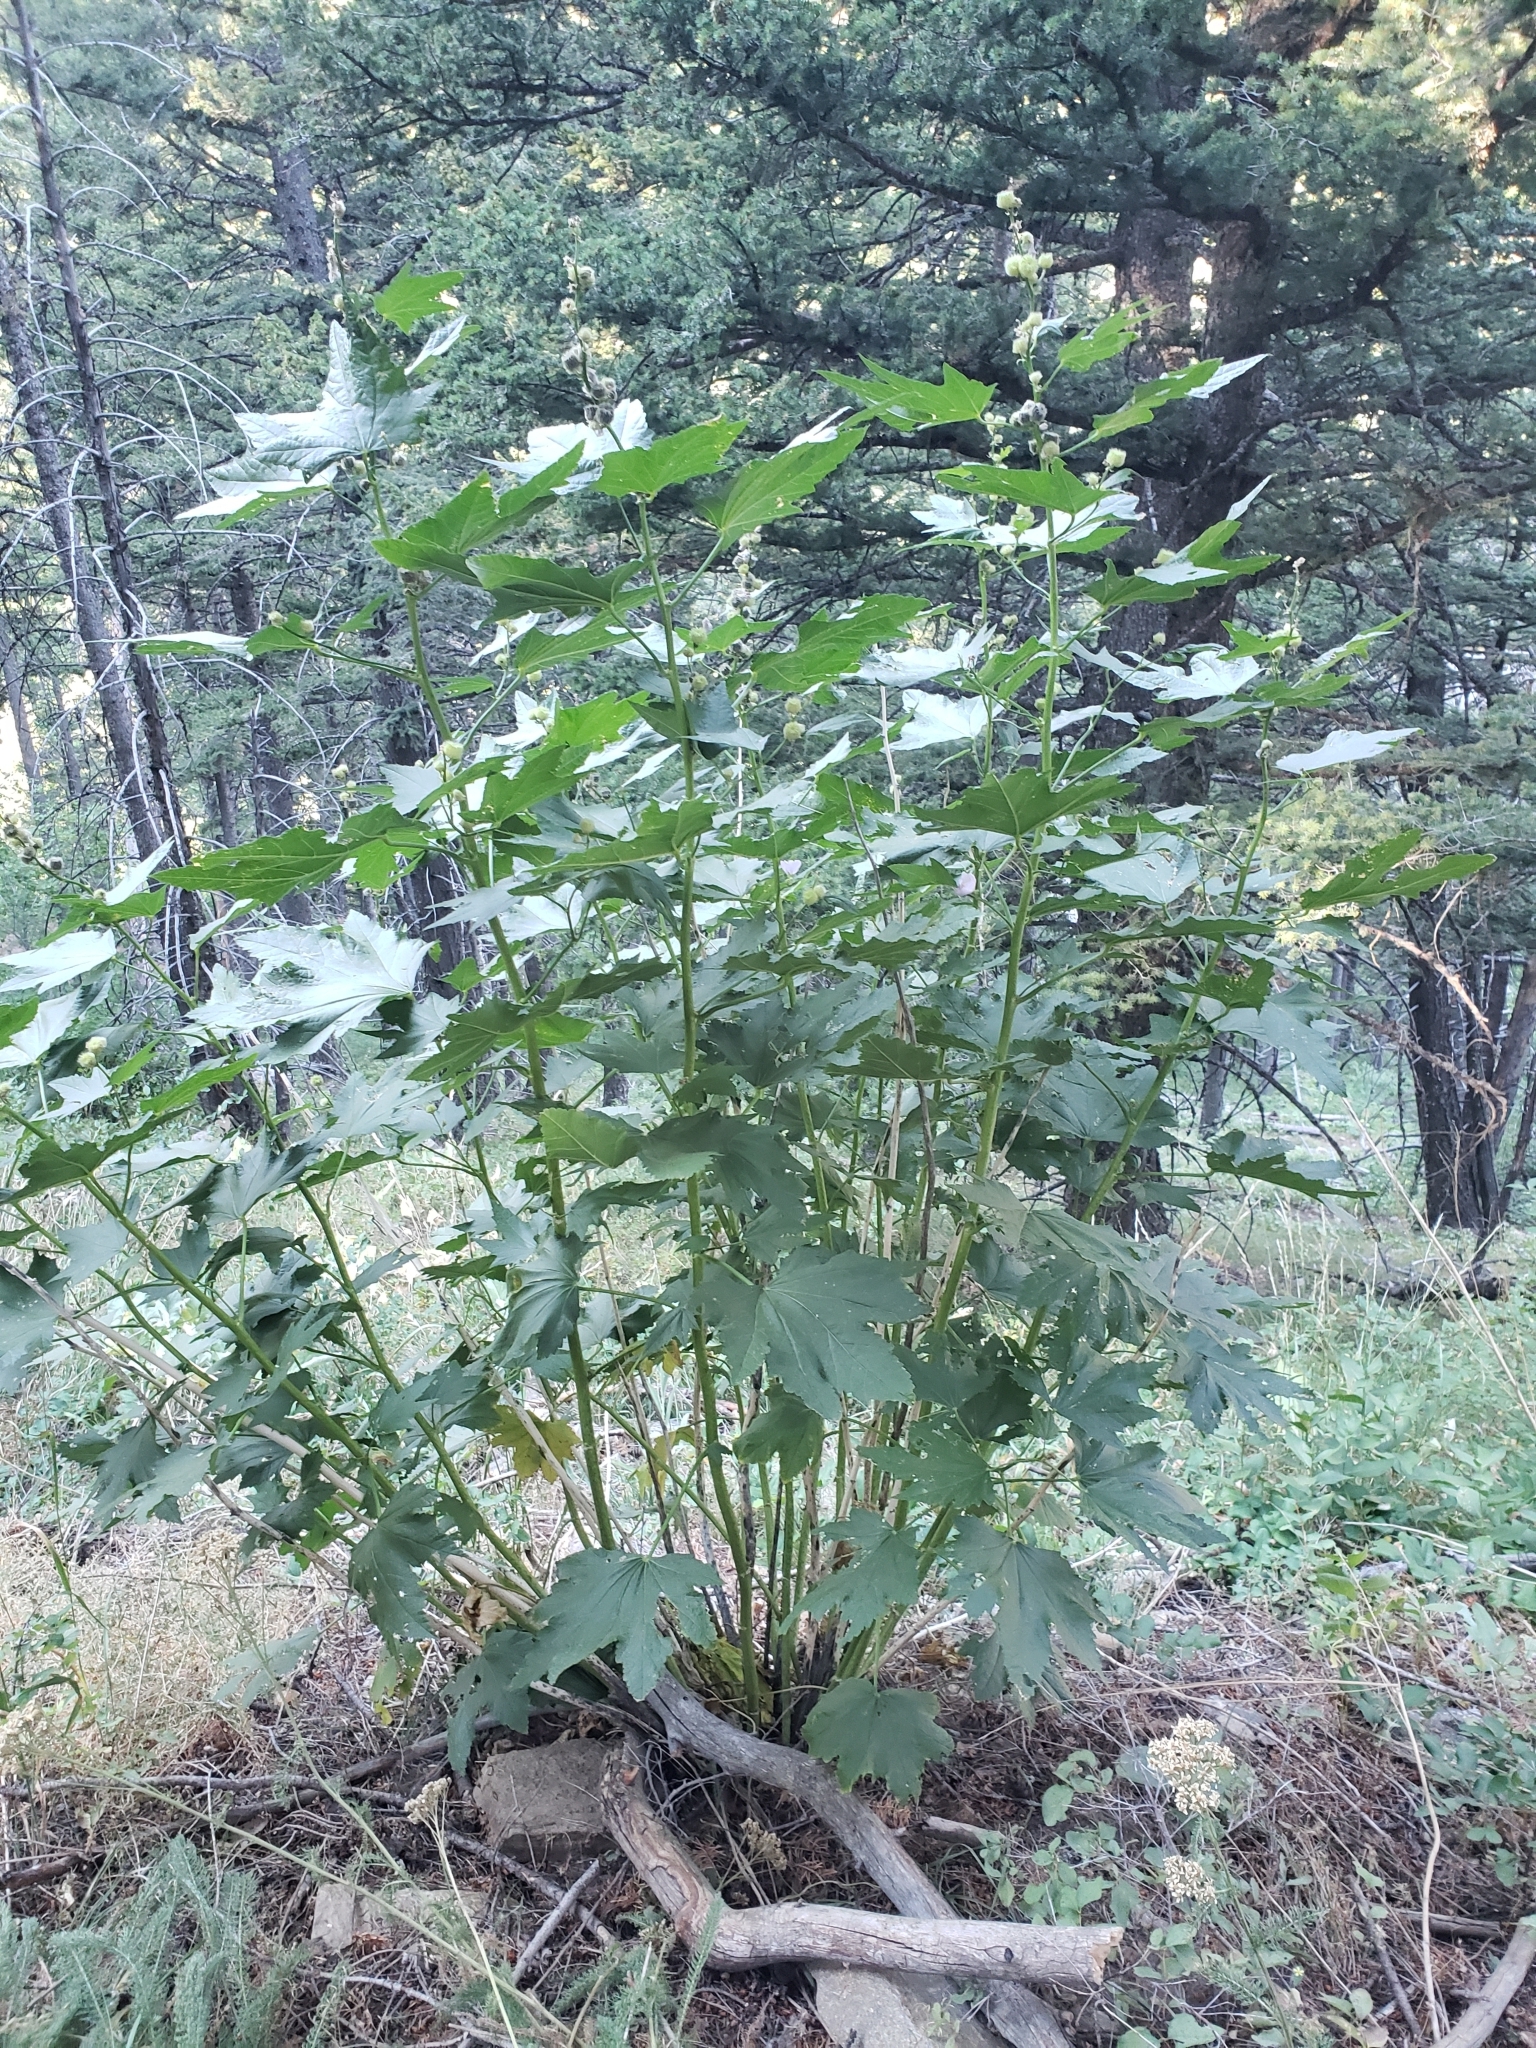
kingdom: Plantae
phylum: Tracheophyta
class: Magnoliopsida
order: Malvales
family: Malvaceae
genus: Iliamna
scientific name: Iliamna rivularis
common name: Wild hollyhock
